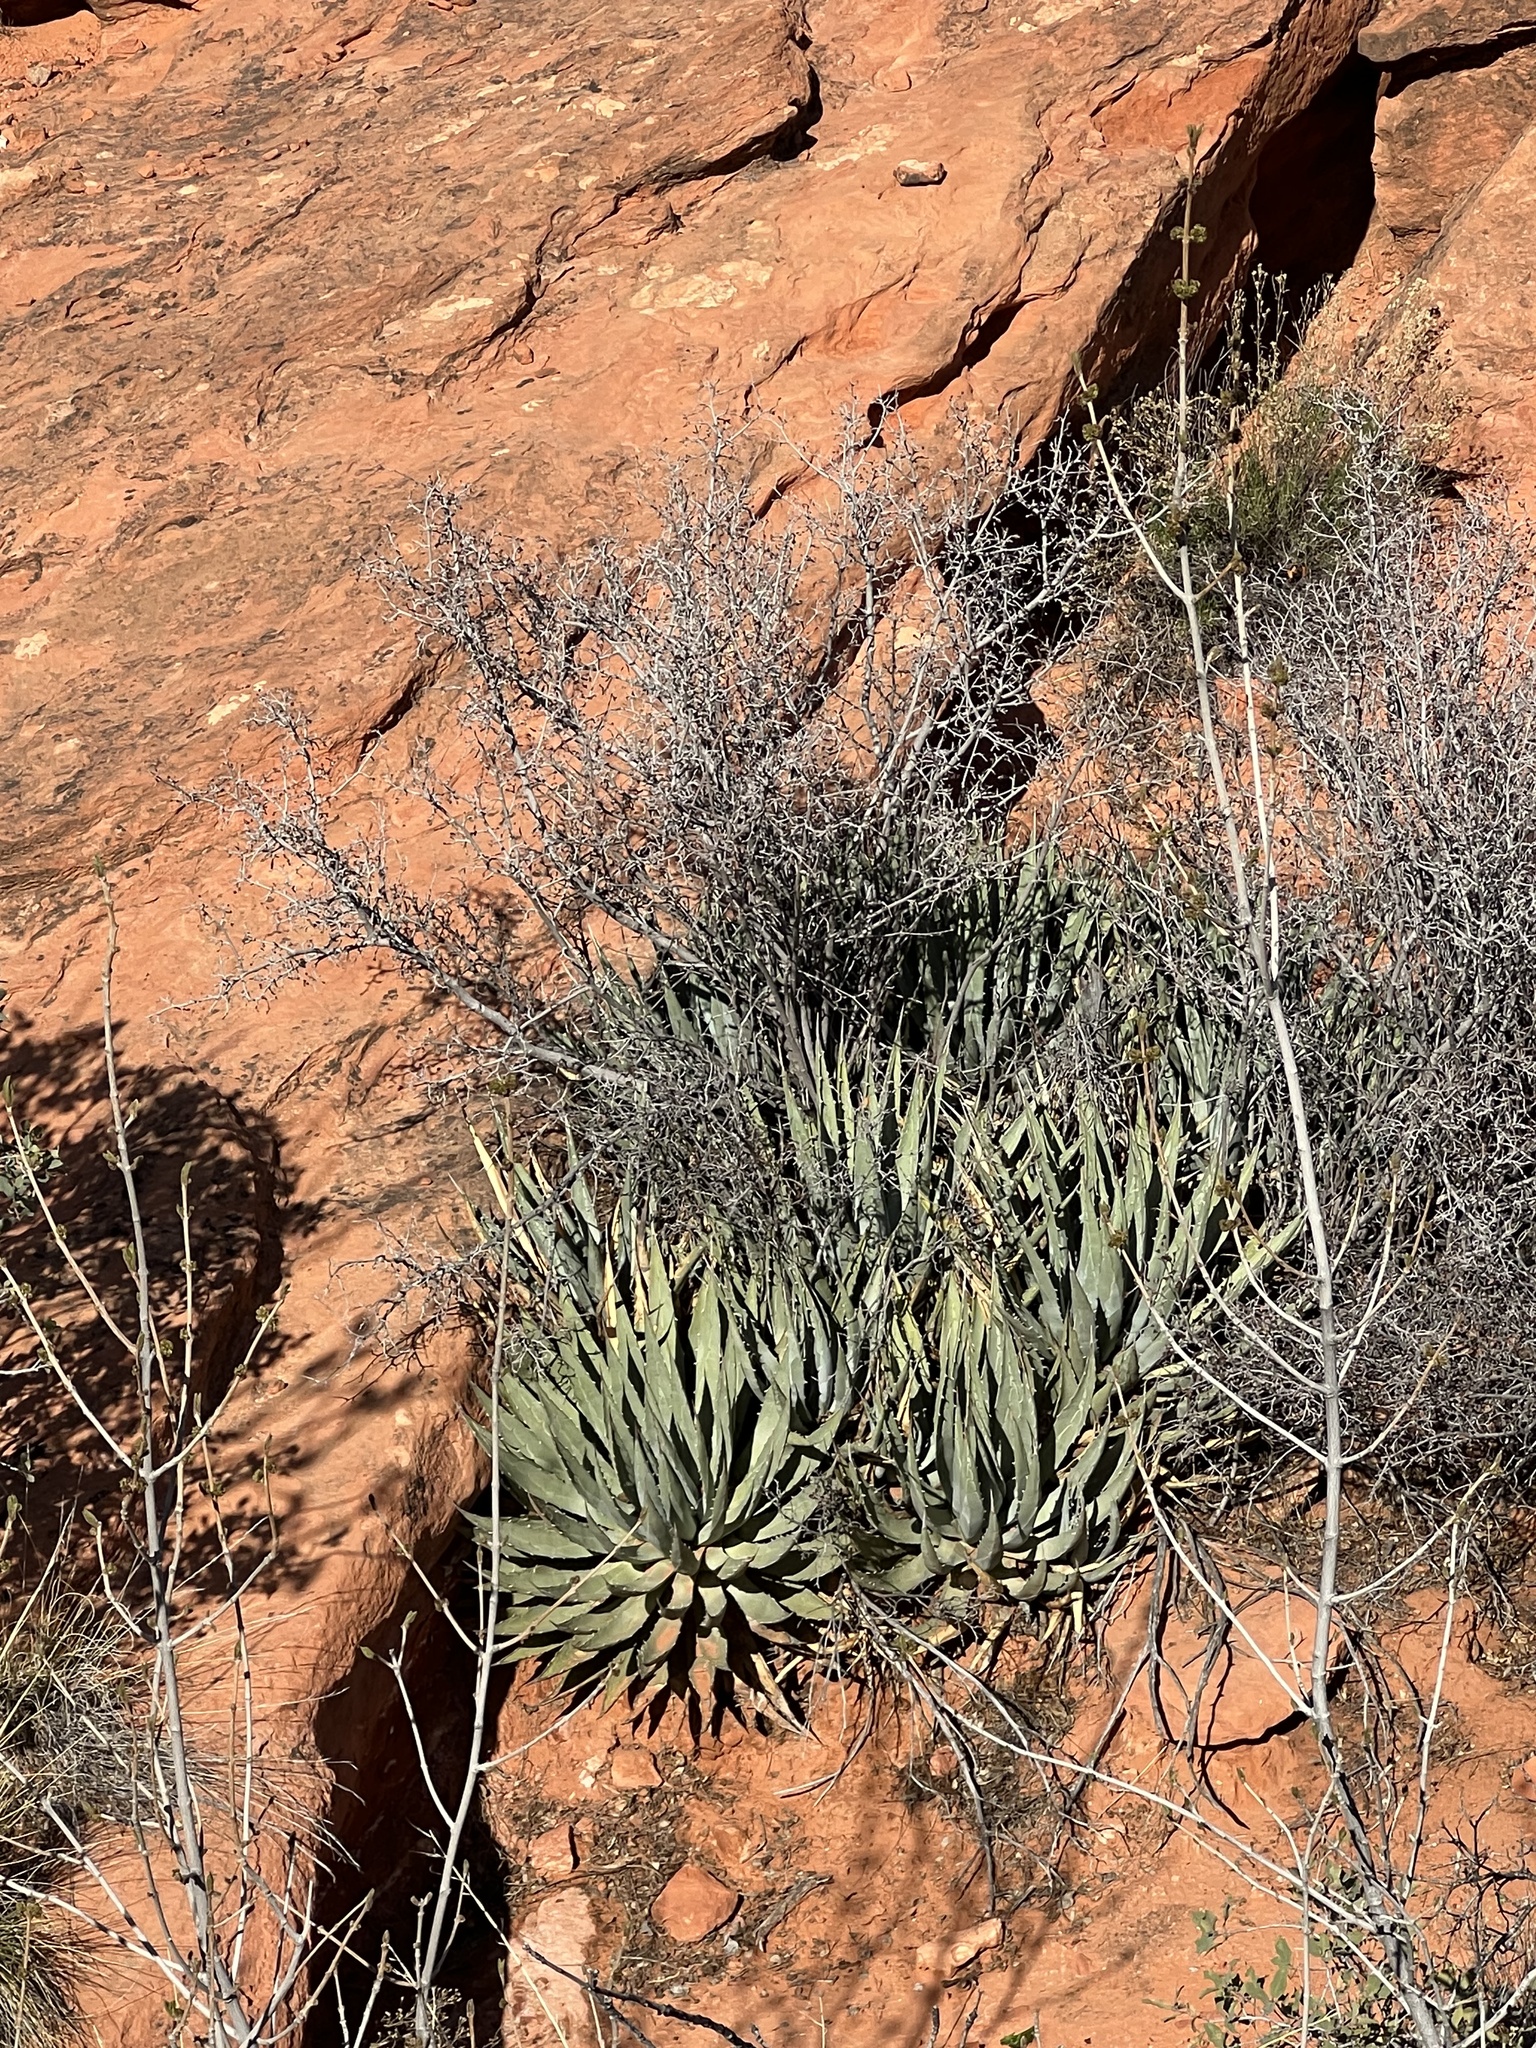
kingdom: Plantae
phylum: Tracheophyta
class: Liliopsida
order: Asparagales
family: Asparagaceae
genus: Agave
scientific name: Agave utahensis
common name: Utah agave
